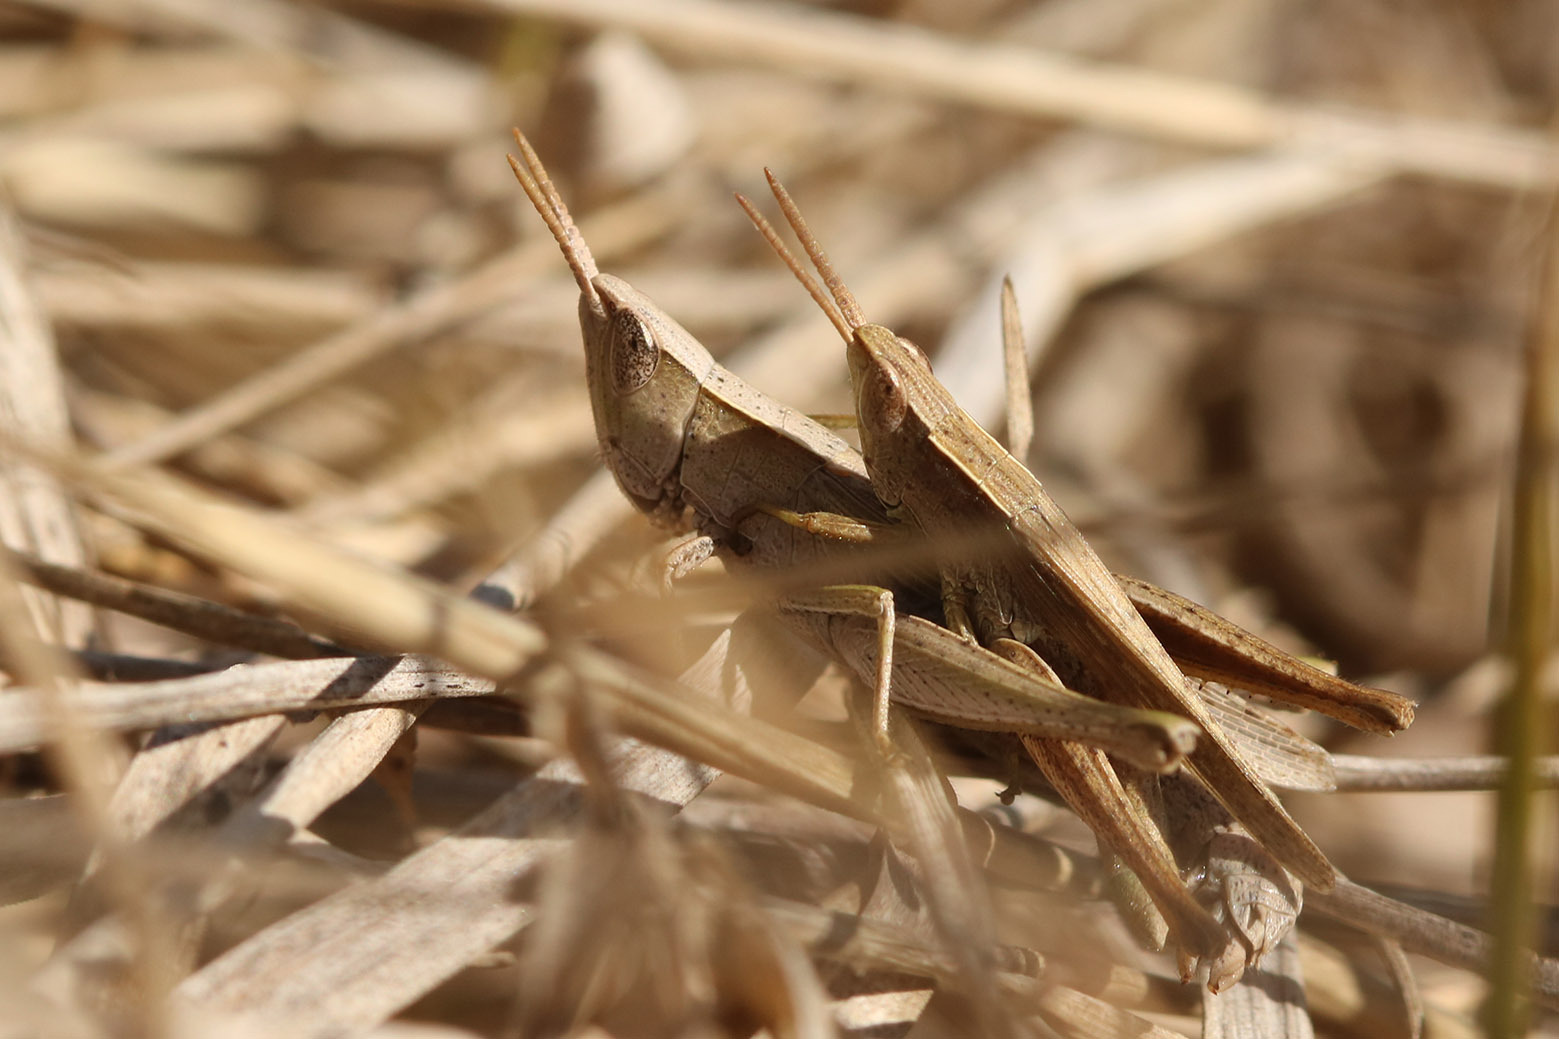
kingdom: Animalia
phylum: Arthropoda
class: Insecta
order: Orthoptera
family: Acrididae
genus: Laplatacris
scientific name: Laplatacris dispar
